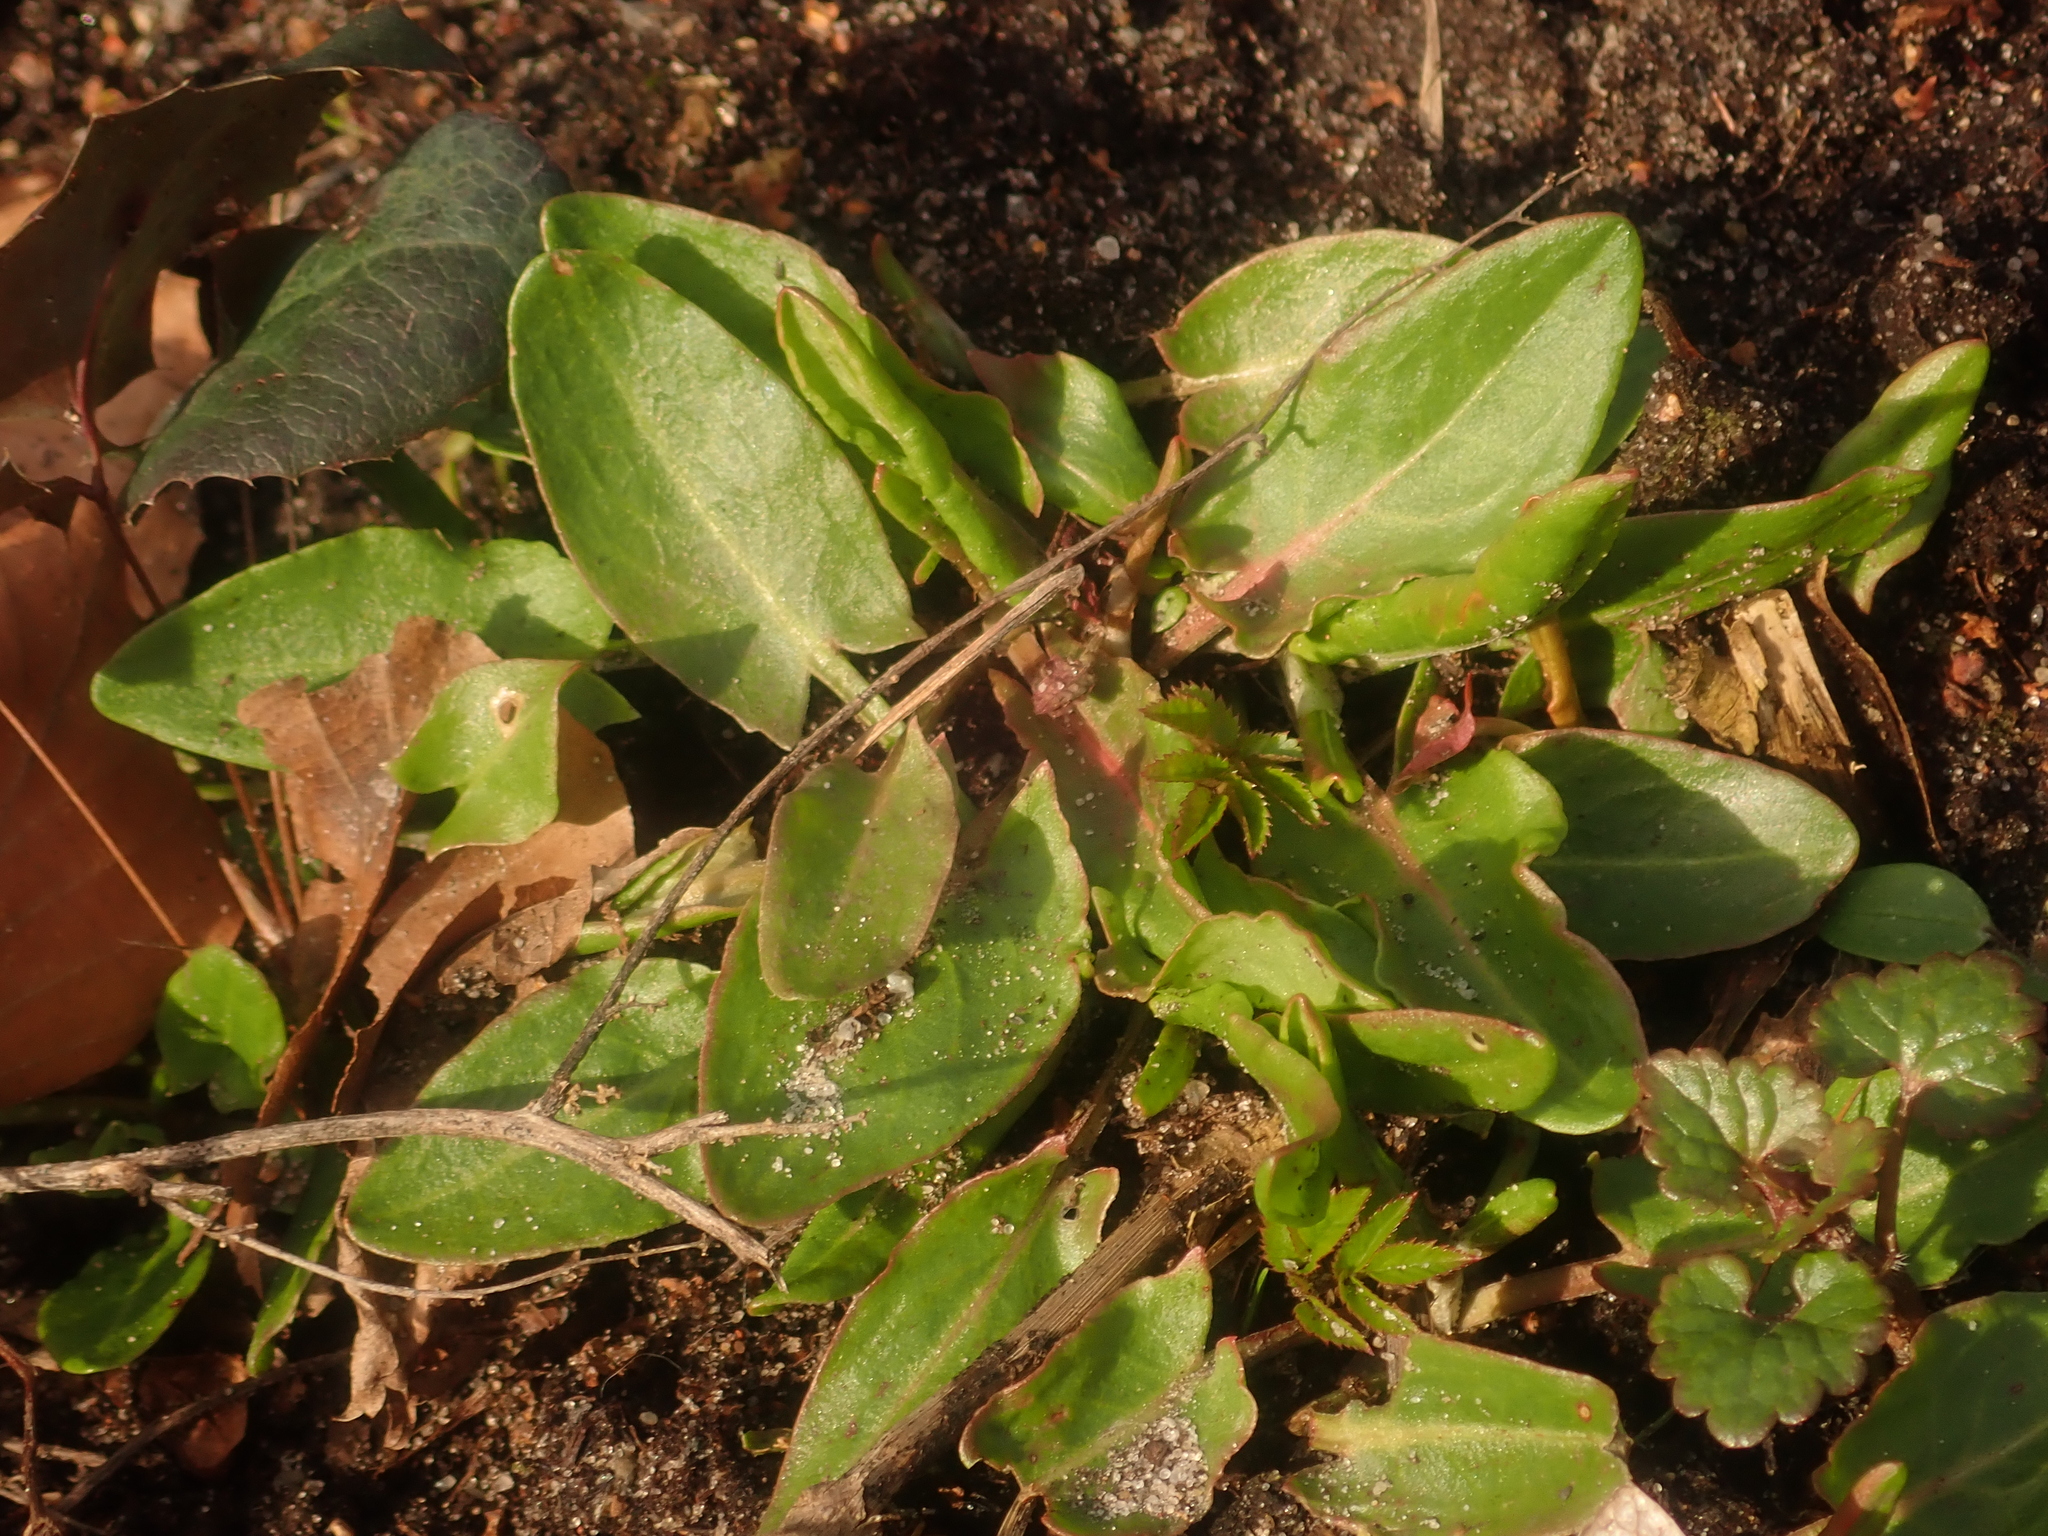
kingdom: Plantae
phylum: Tracheophyta
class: Magnoliopsida
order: Caryophyllales
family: Polygonaceae
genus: Rumex
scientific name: Rumex acetosa
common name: Garden sorrel
